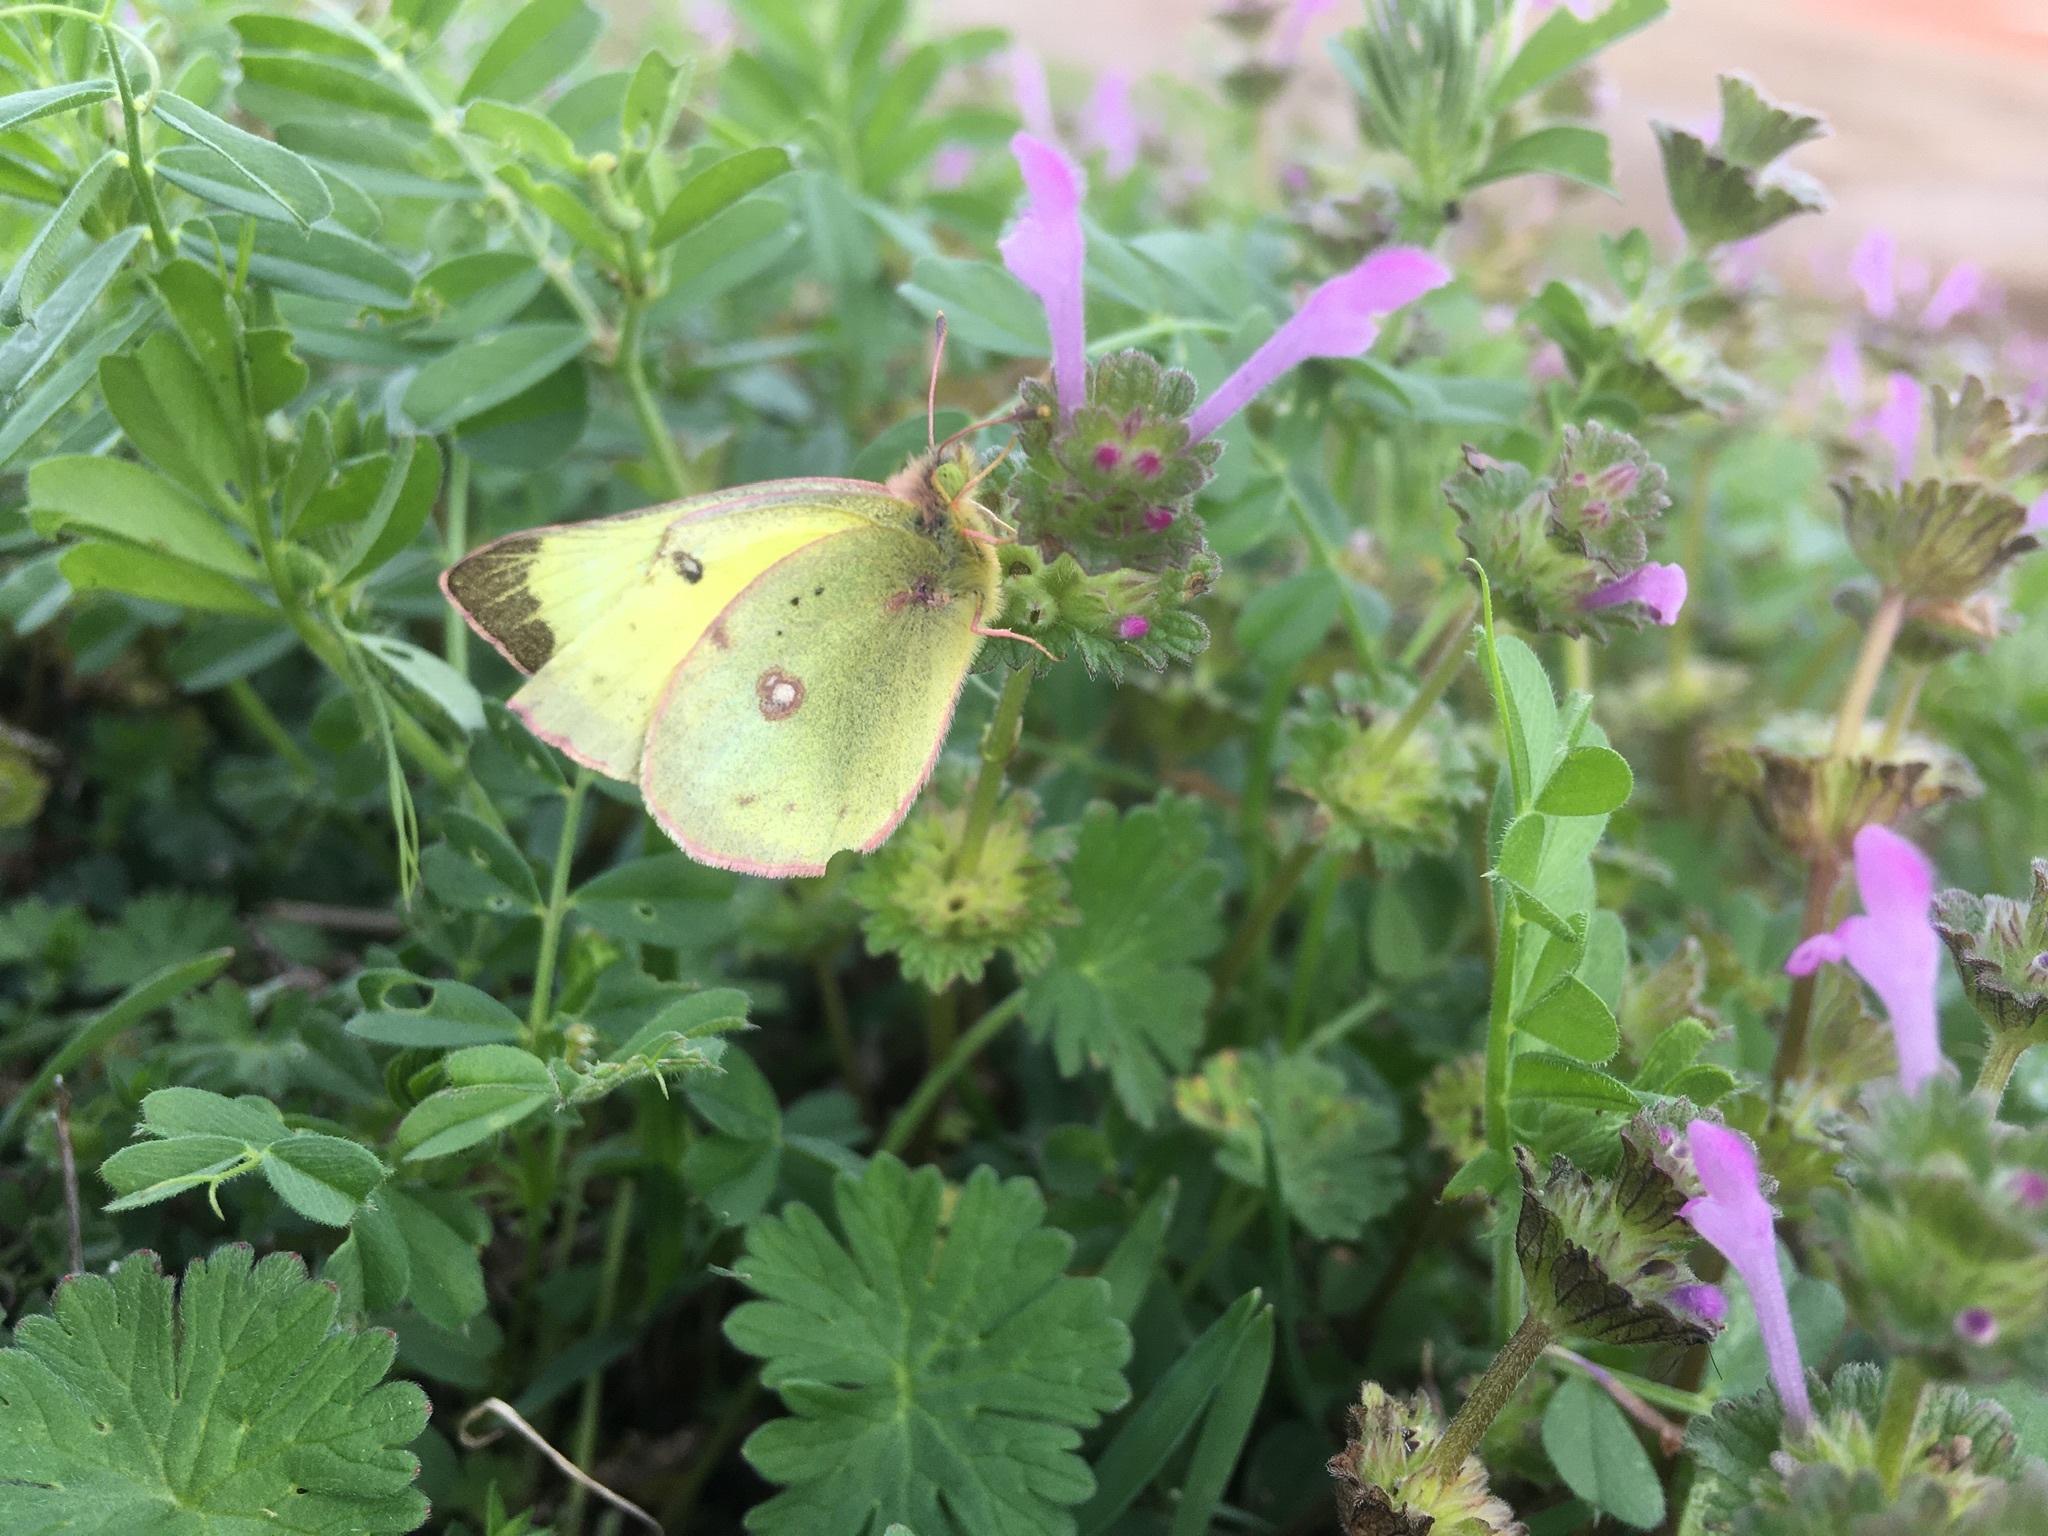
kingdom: Animalia
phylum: Arthropoda
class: Insecta
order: Lepidoptera
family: Pieridae
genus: Colias
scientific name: Colias eurytheme
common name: Alfalfa butterfly
